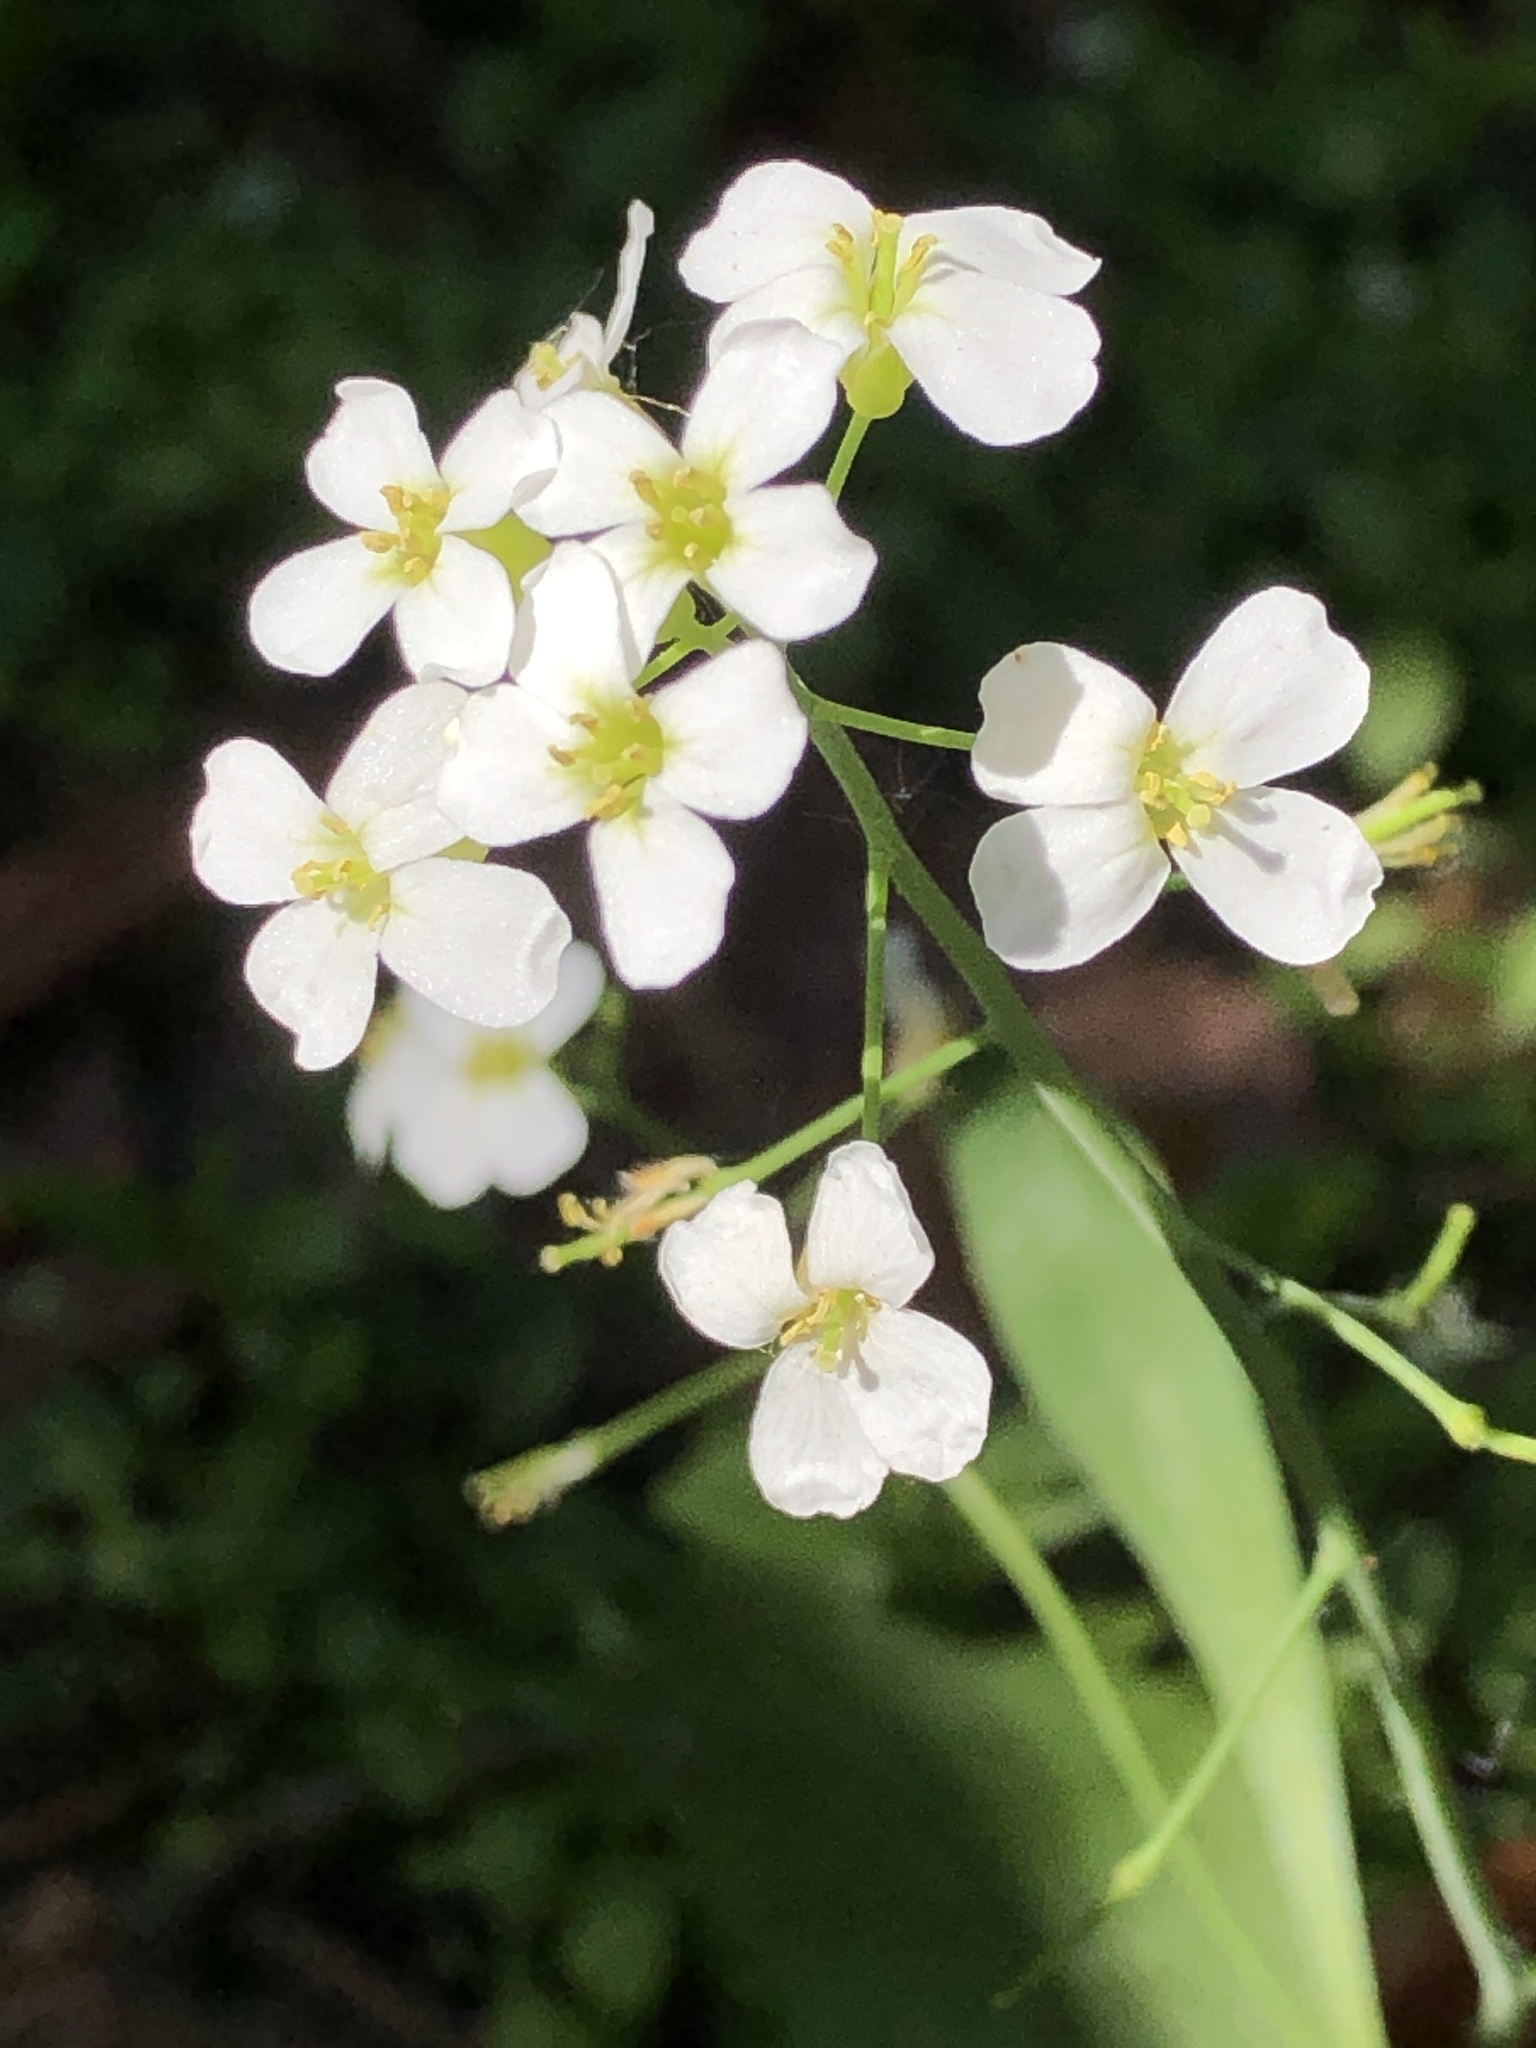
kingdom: Plantae
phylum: Tracheophyta
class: Magnoliopsida
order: Brassicales
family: Brassicaceae
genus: Cardamine
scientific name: Cardamine pratensis
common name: Cuckoo flower
